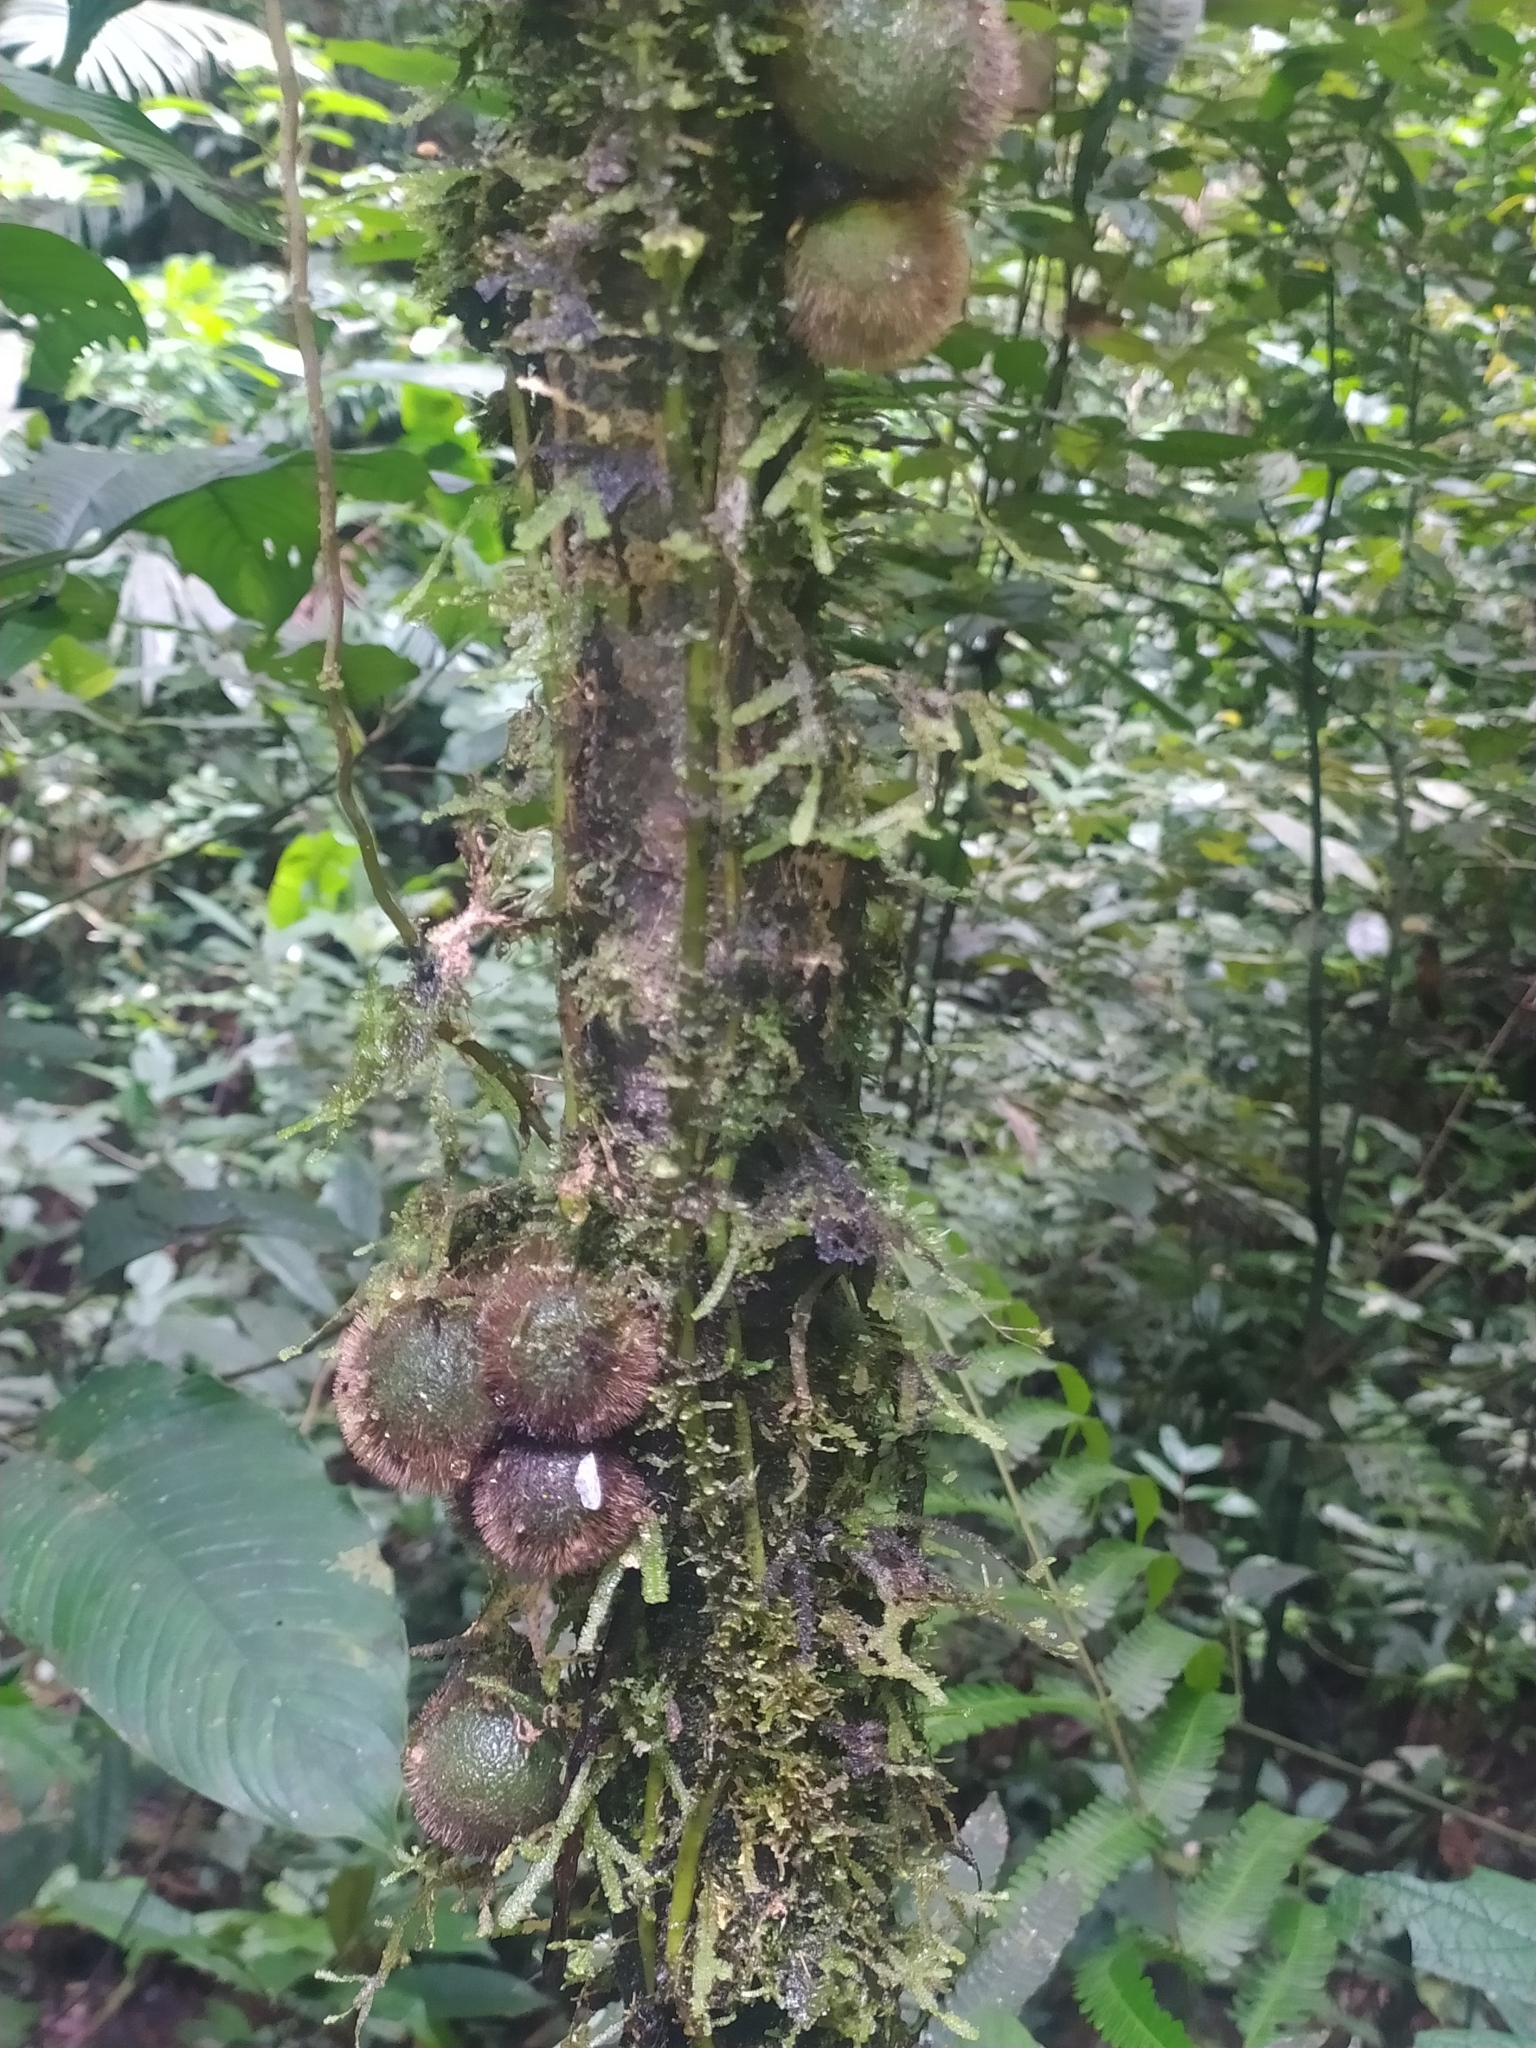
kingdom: Plantae
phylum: Tracheophyta
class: Magnoliopsida
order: Ericales
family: Ebenaceae
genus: Diospyros
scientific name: Diospyros ropourea
